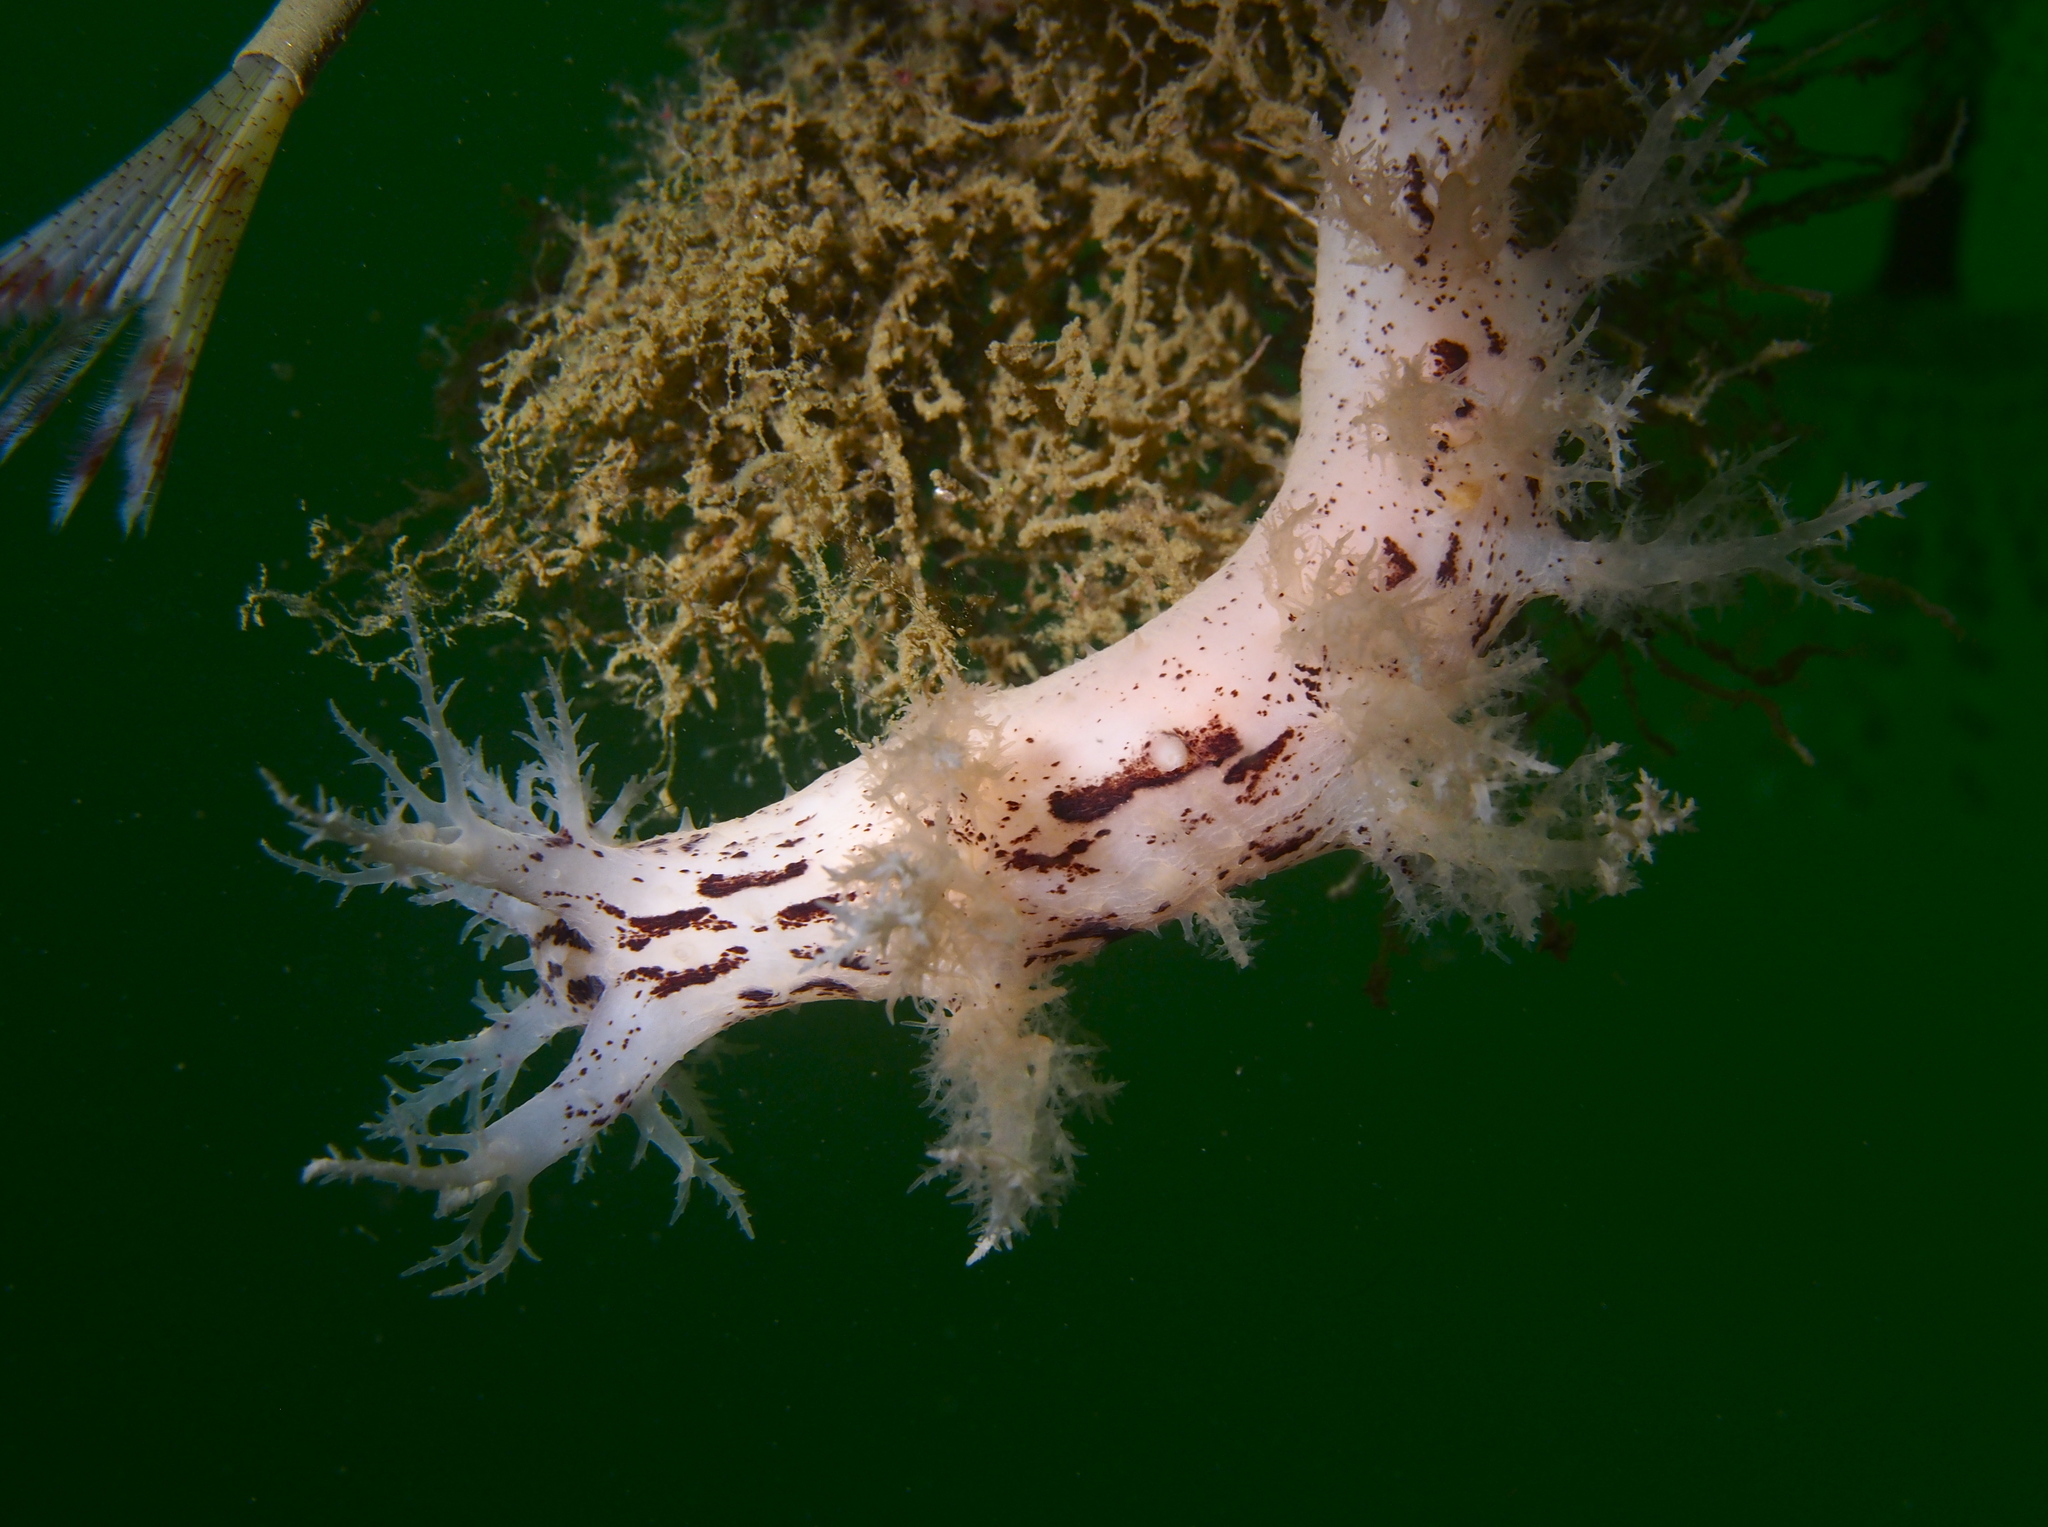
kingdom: Animalia
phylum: Mollusca
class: Gastropoda
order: Nudibranchia
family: Dendronotidae
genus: Dendronotus
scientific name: Dendronotus europaeus
